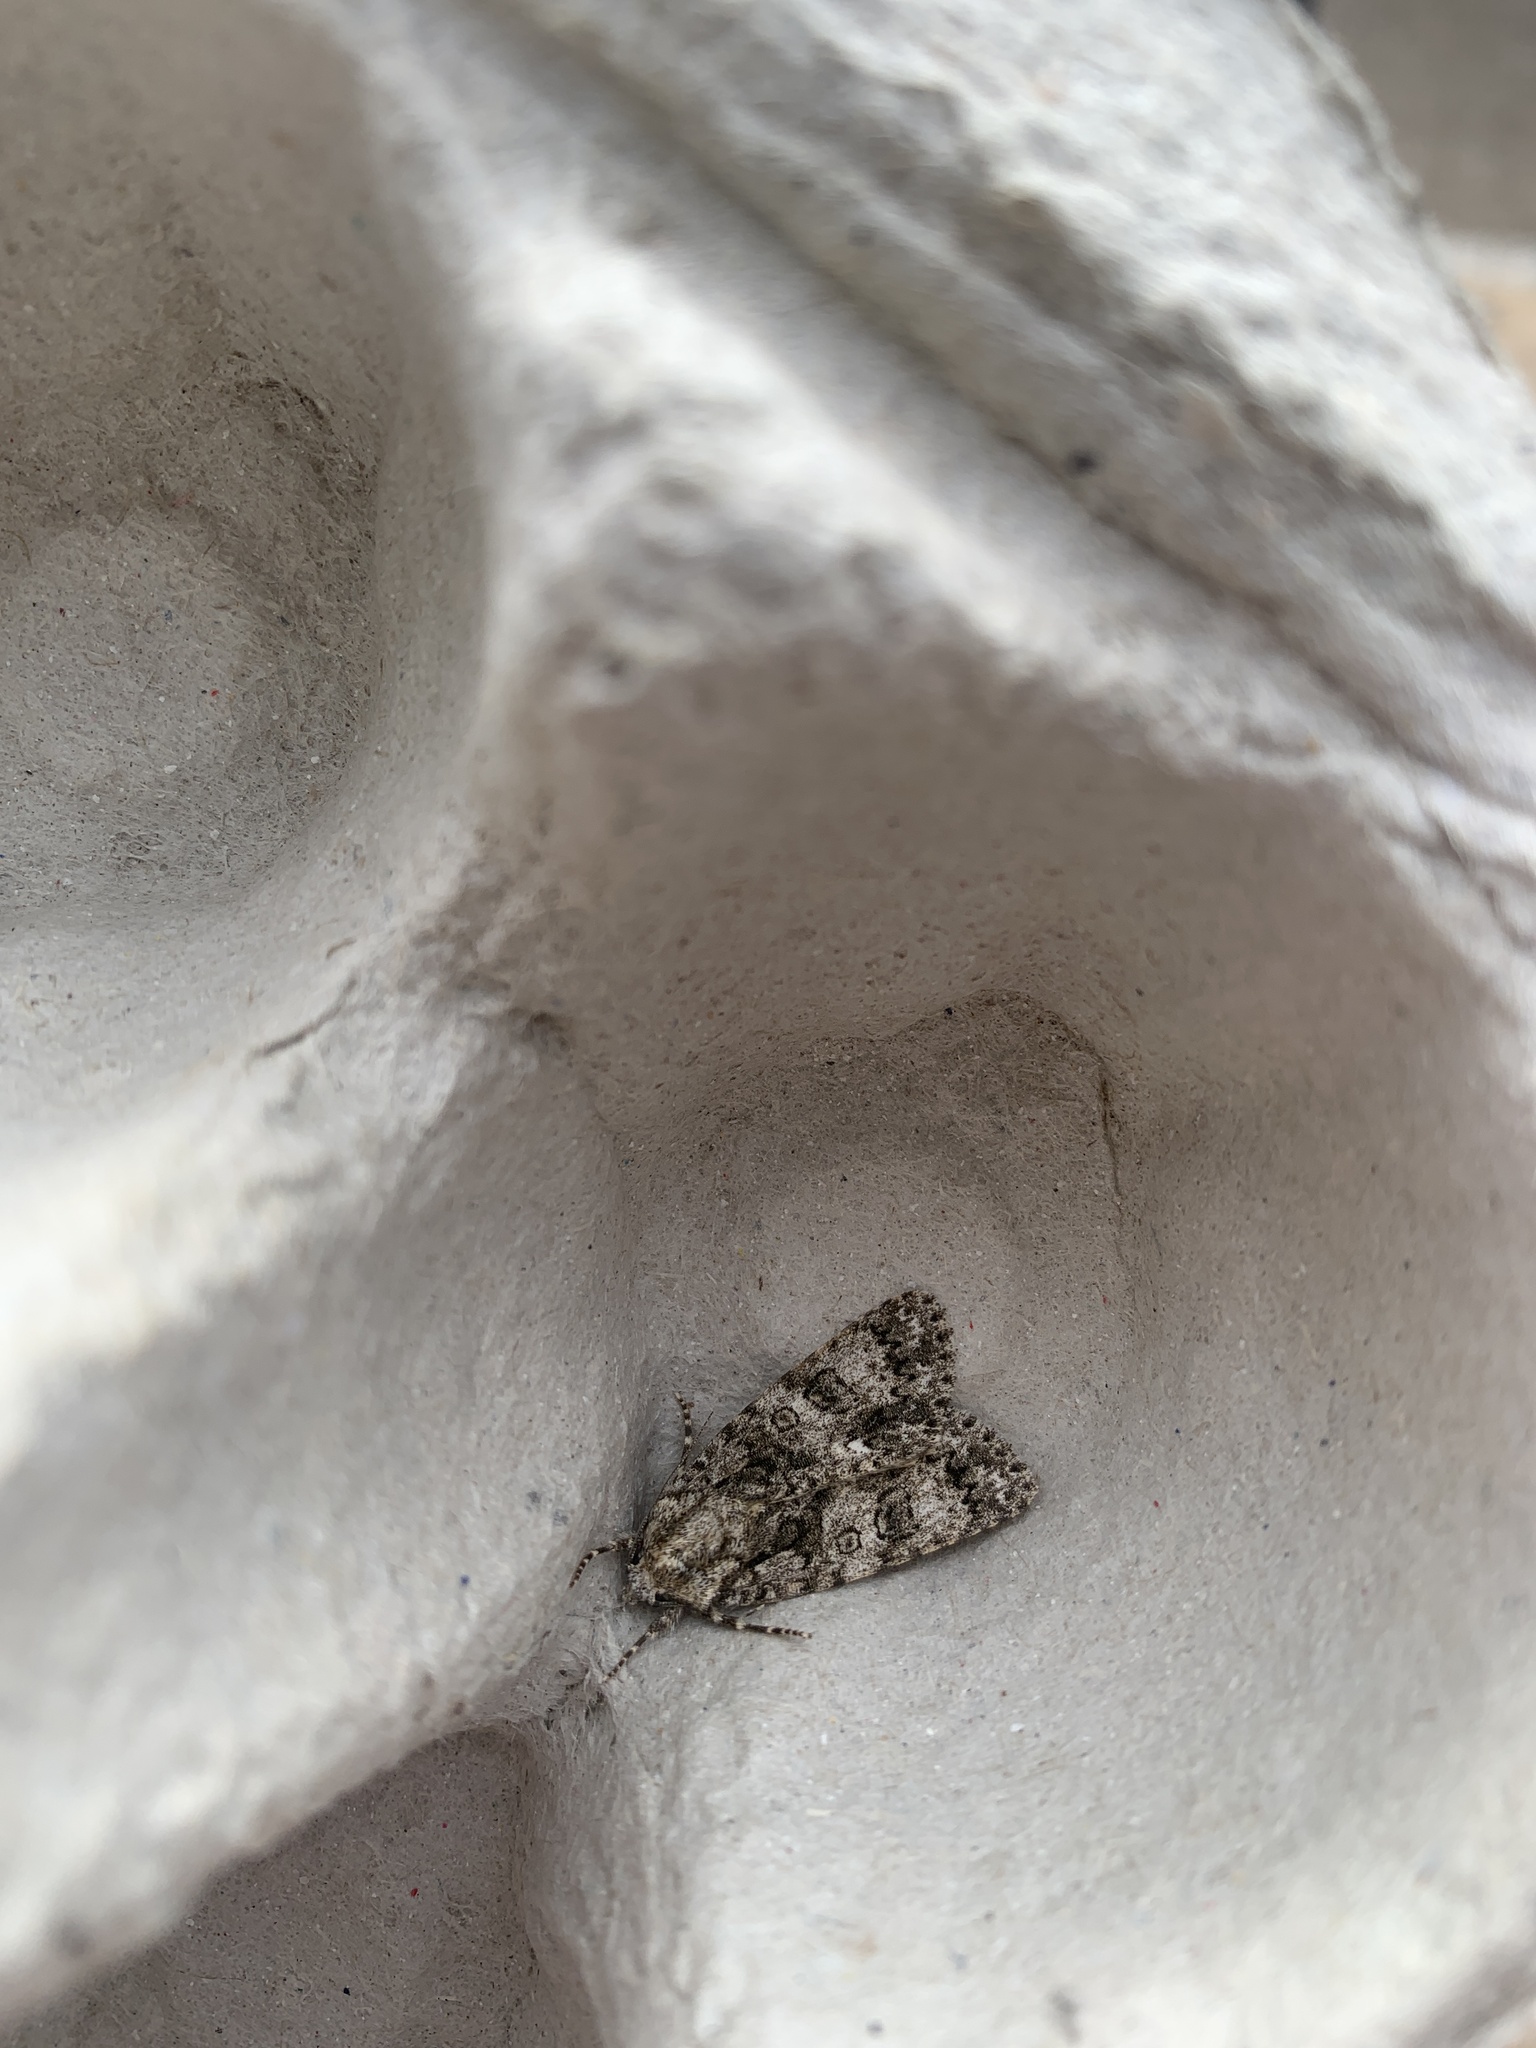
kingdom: Animalia
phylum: Arthropoda
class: Insecta
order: Lepidoptera
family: Noctuidae
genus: Acronicta
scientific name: Acronicta megacephala
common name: Poplar grey
